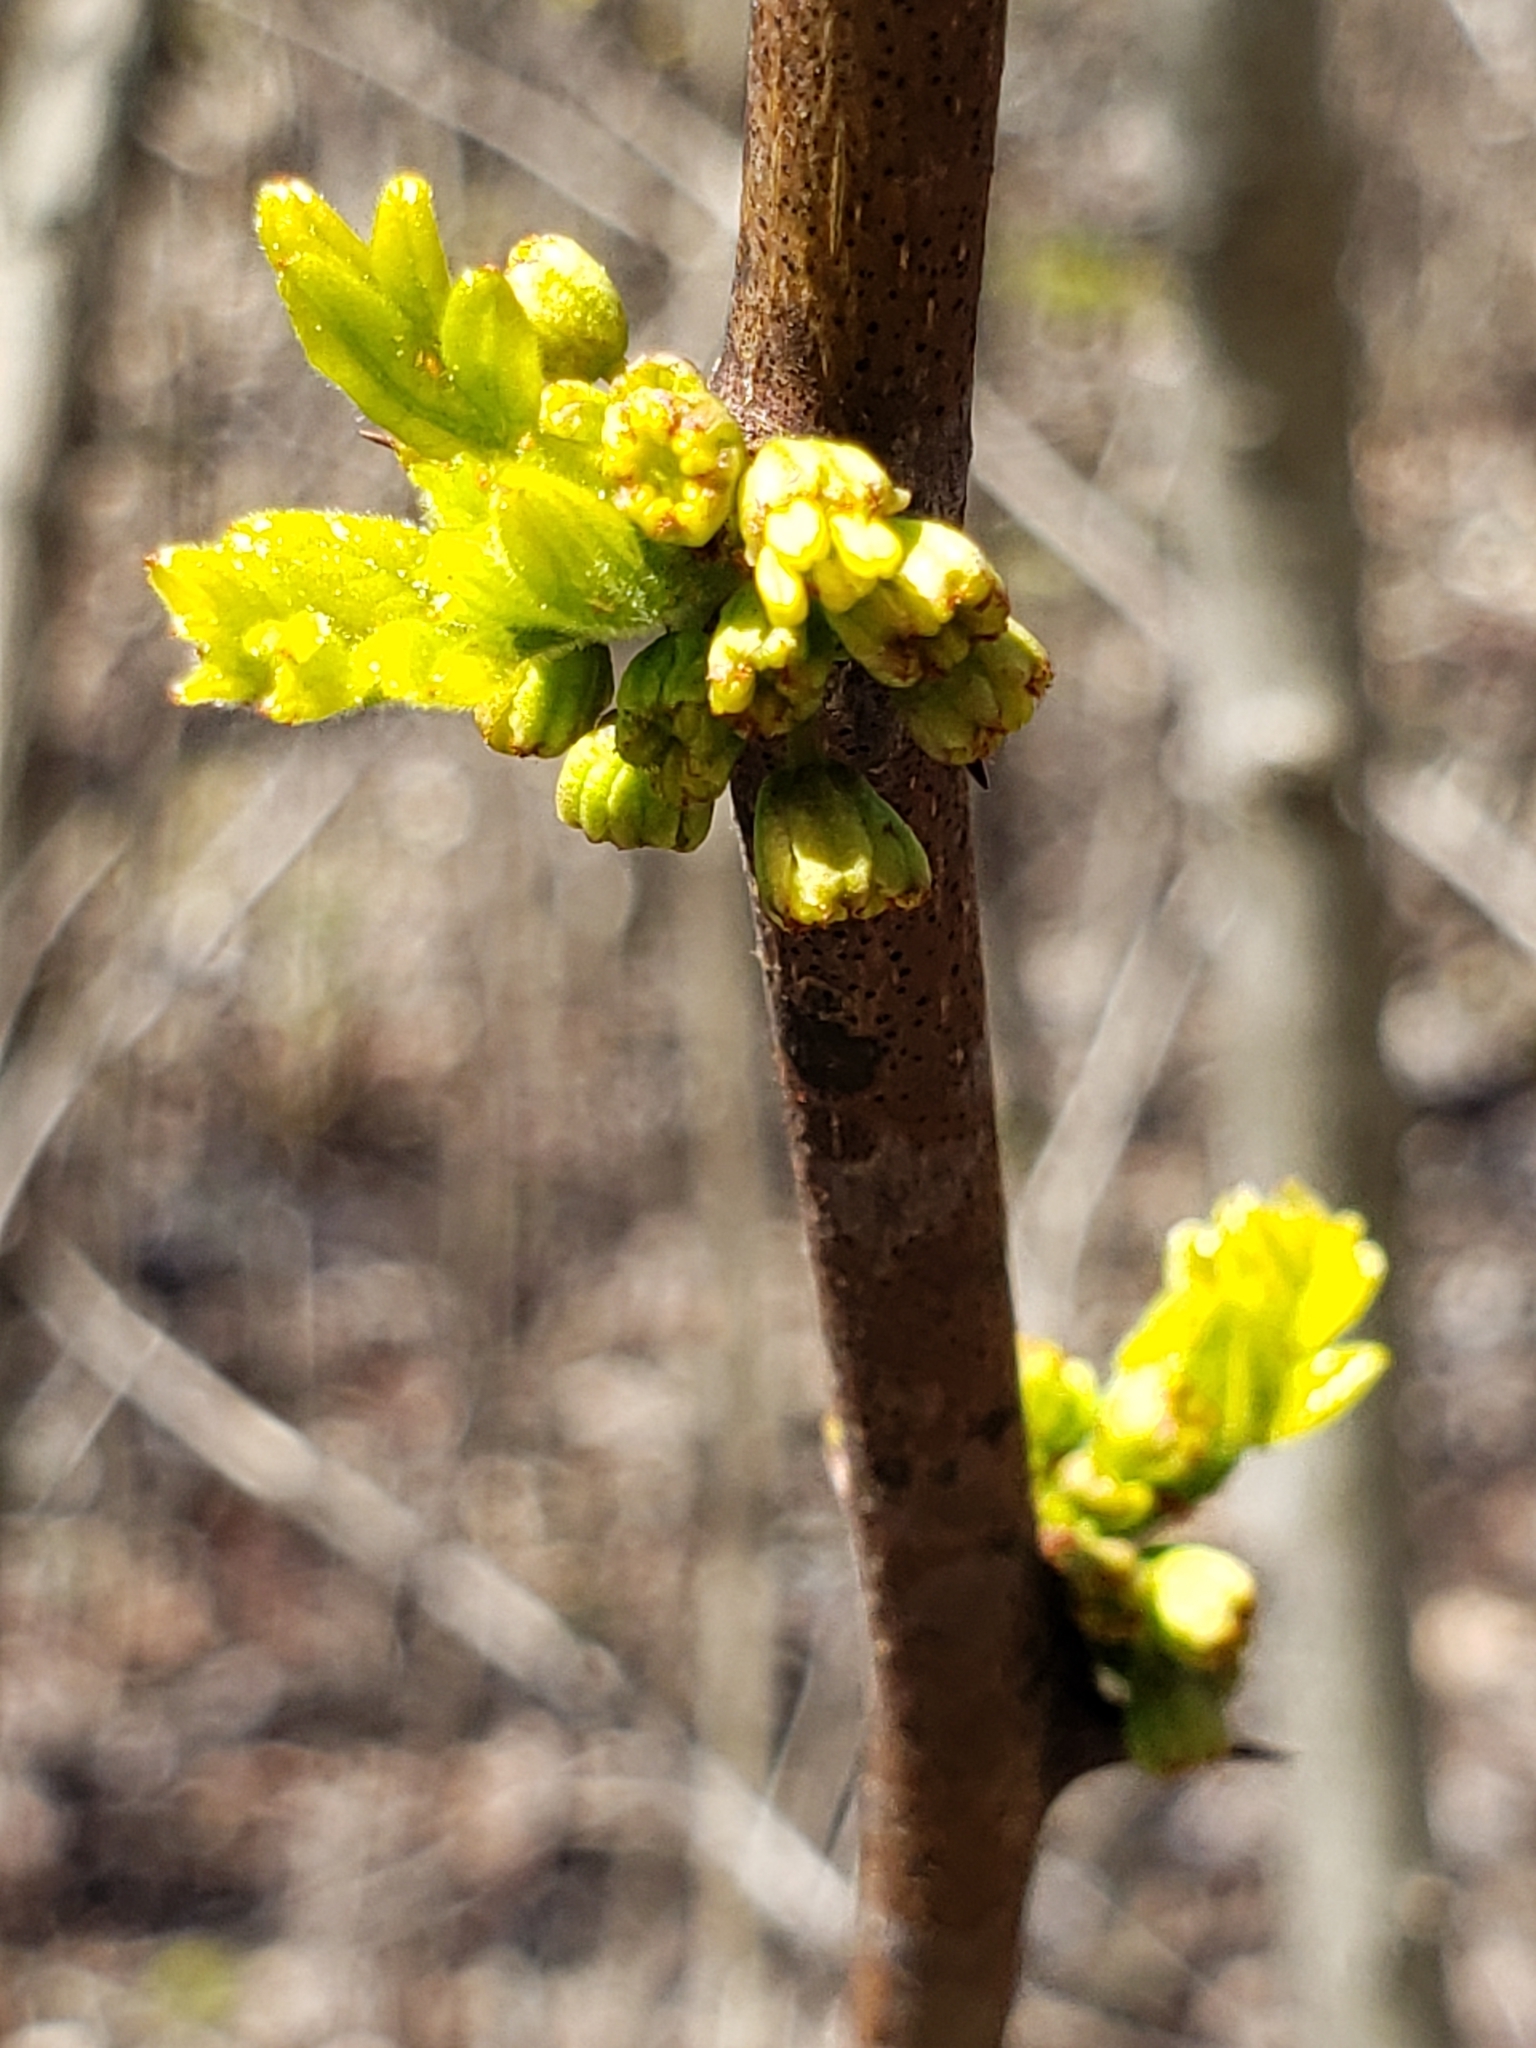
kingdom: Plantae
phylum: Tracheophyta
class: Magnoliopsida
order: Sapindales
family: Rutaceae
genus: Zanthoxylum
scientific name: Zanthoxylum americanum
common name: Northern prickly-ash
